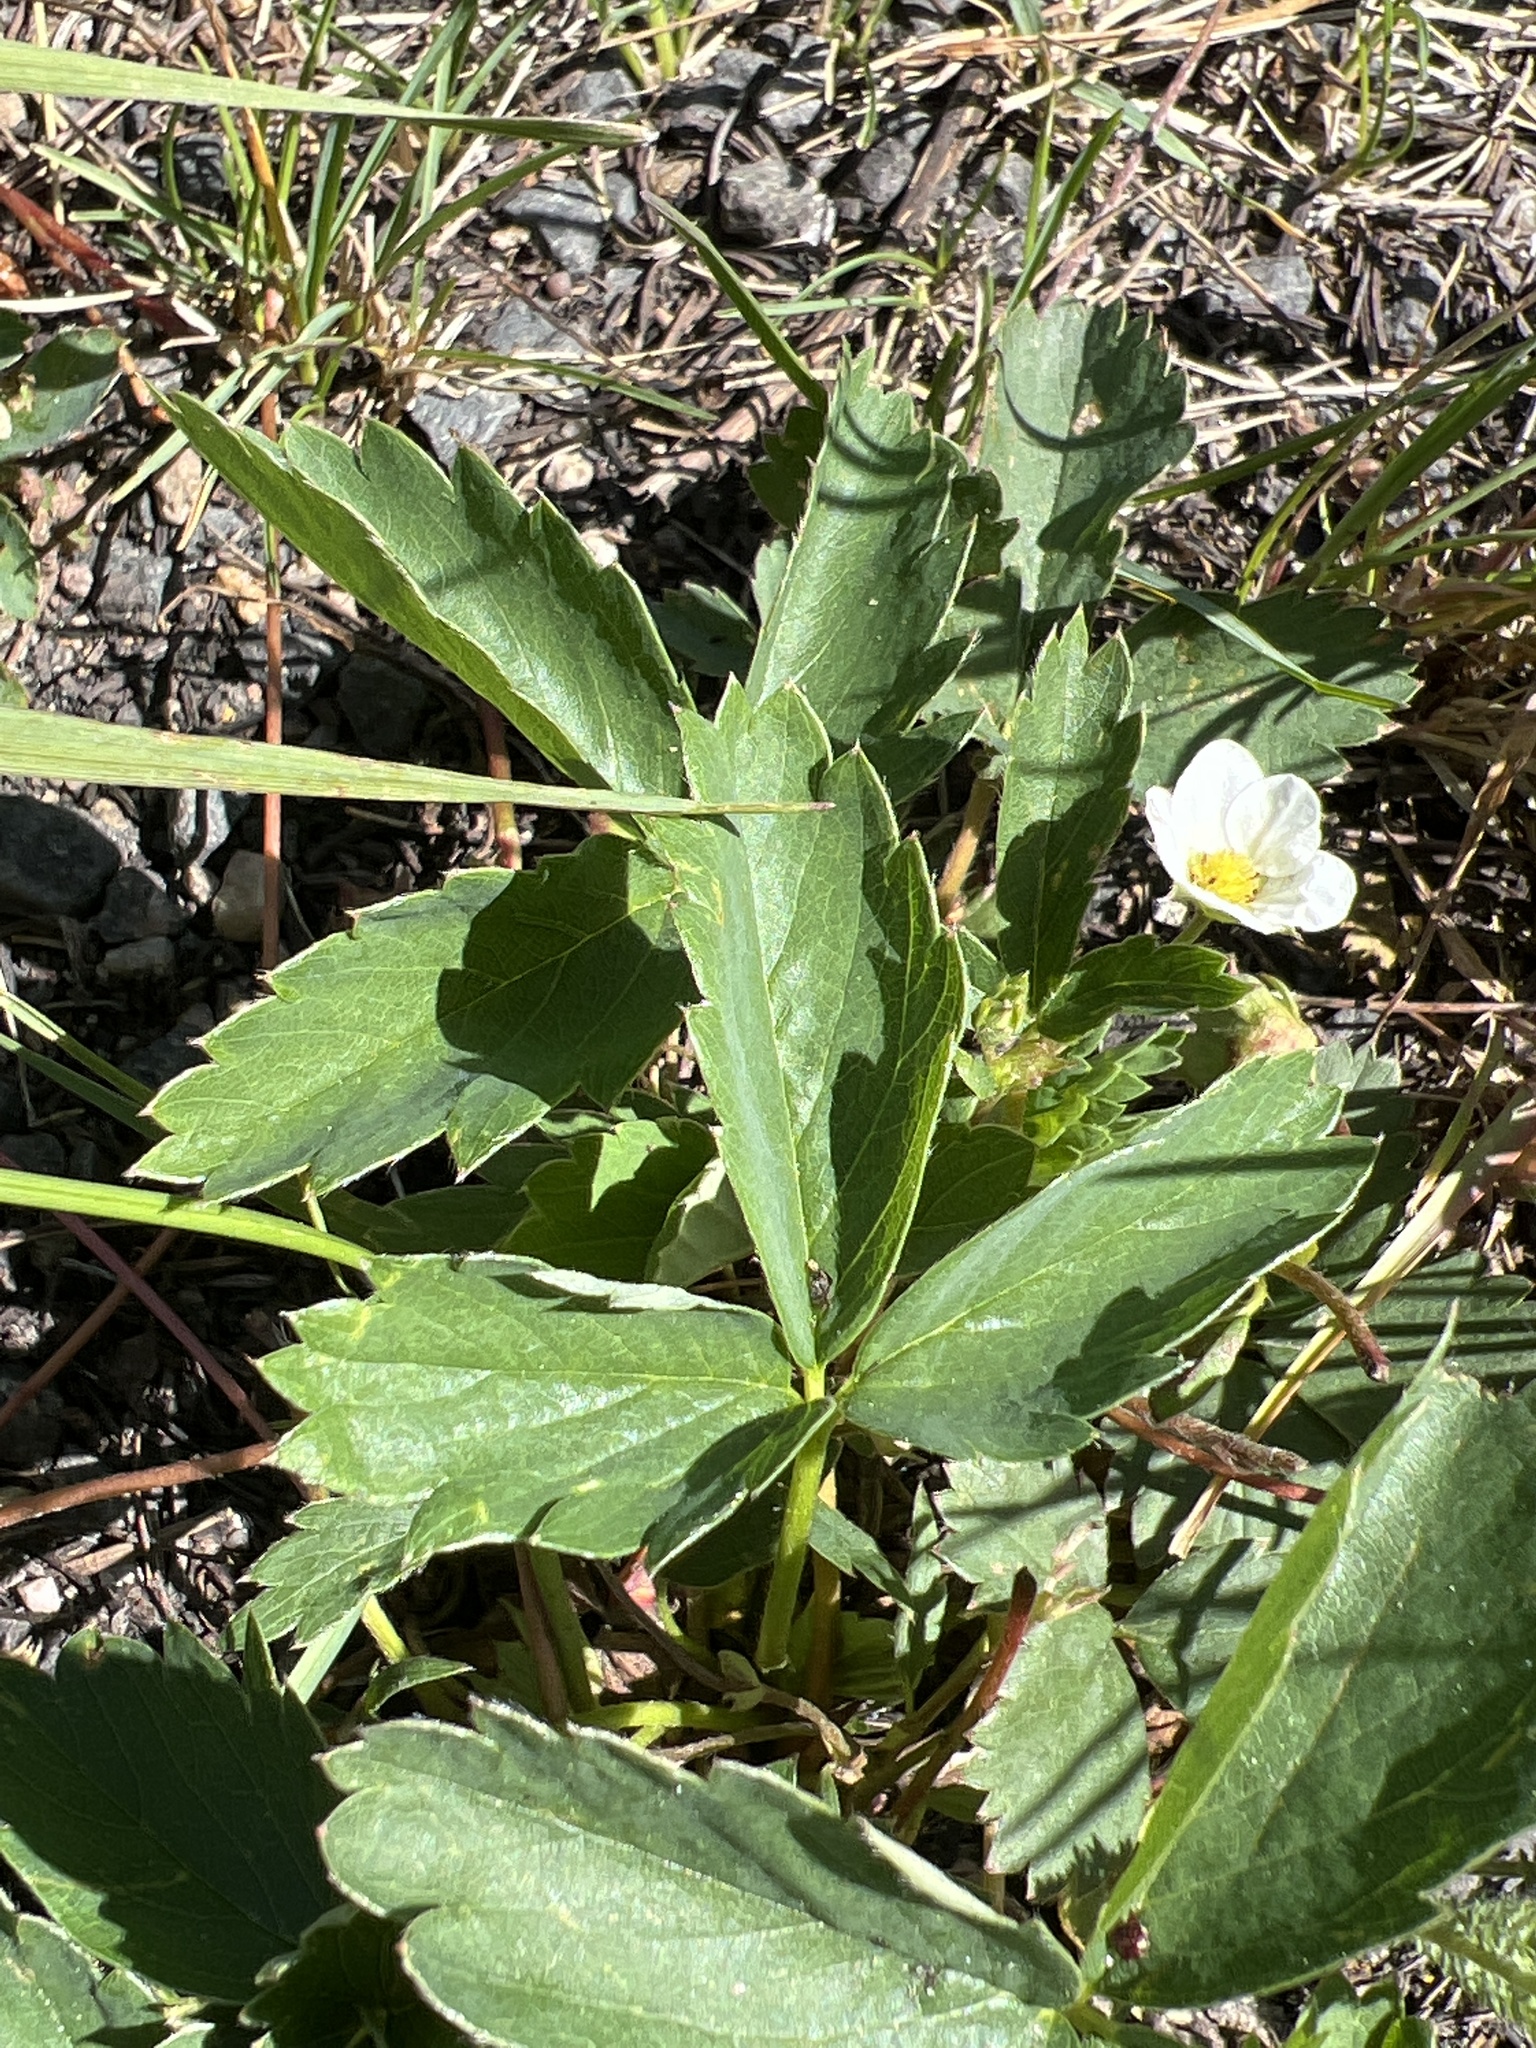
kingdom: Plantae
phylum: Tracheophyta
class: Magnoliopsida
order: Rosales
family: Rosaceae
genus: Fragaria
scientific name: Fragaria virginiana
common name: Thickleaved wild strawberry
